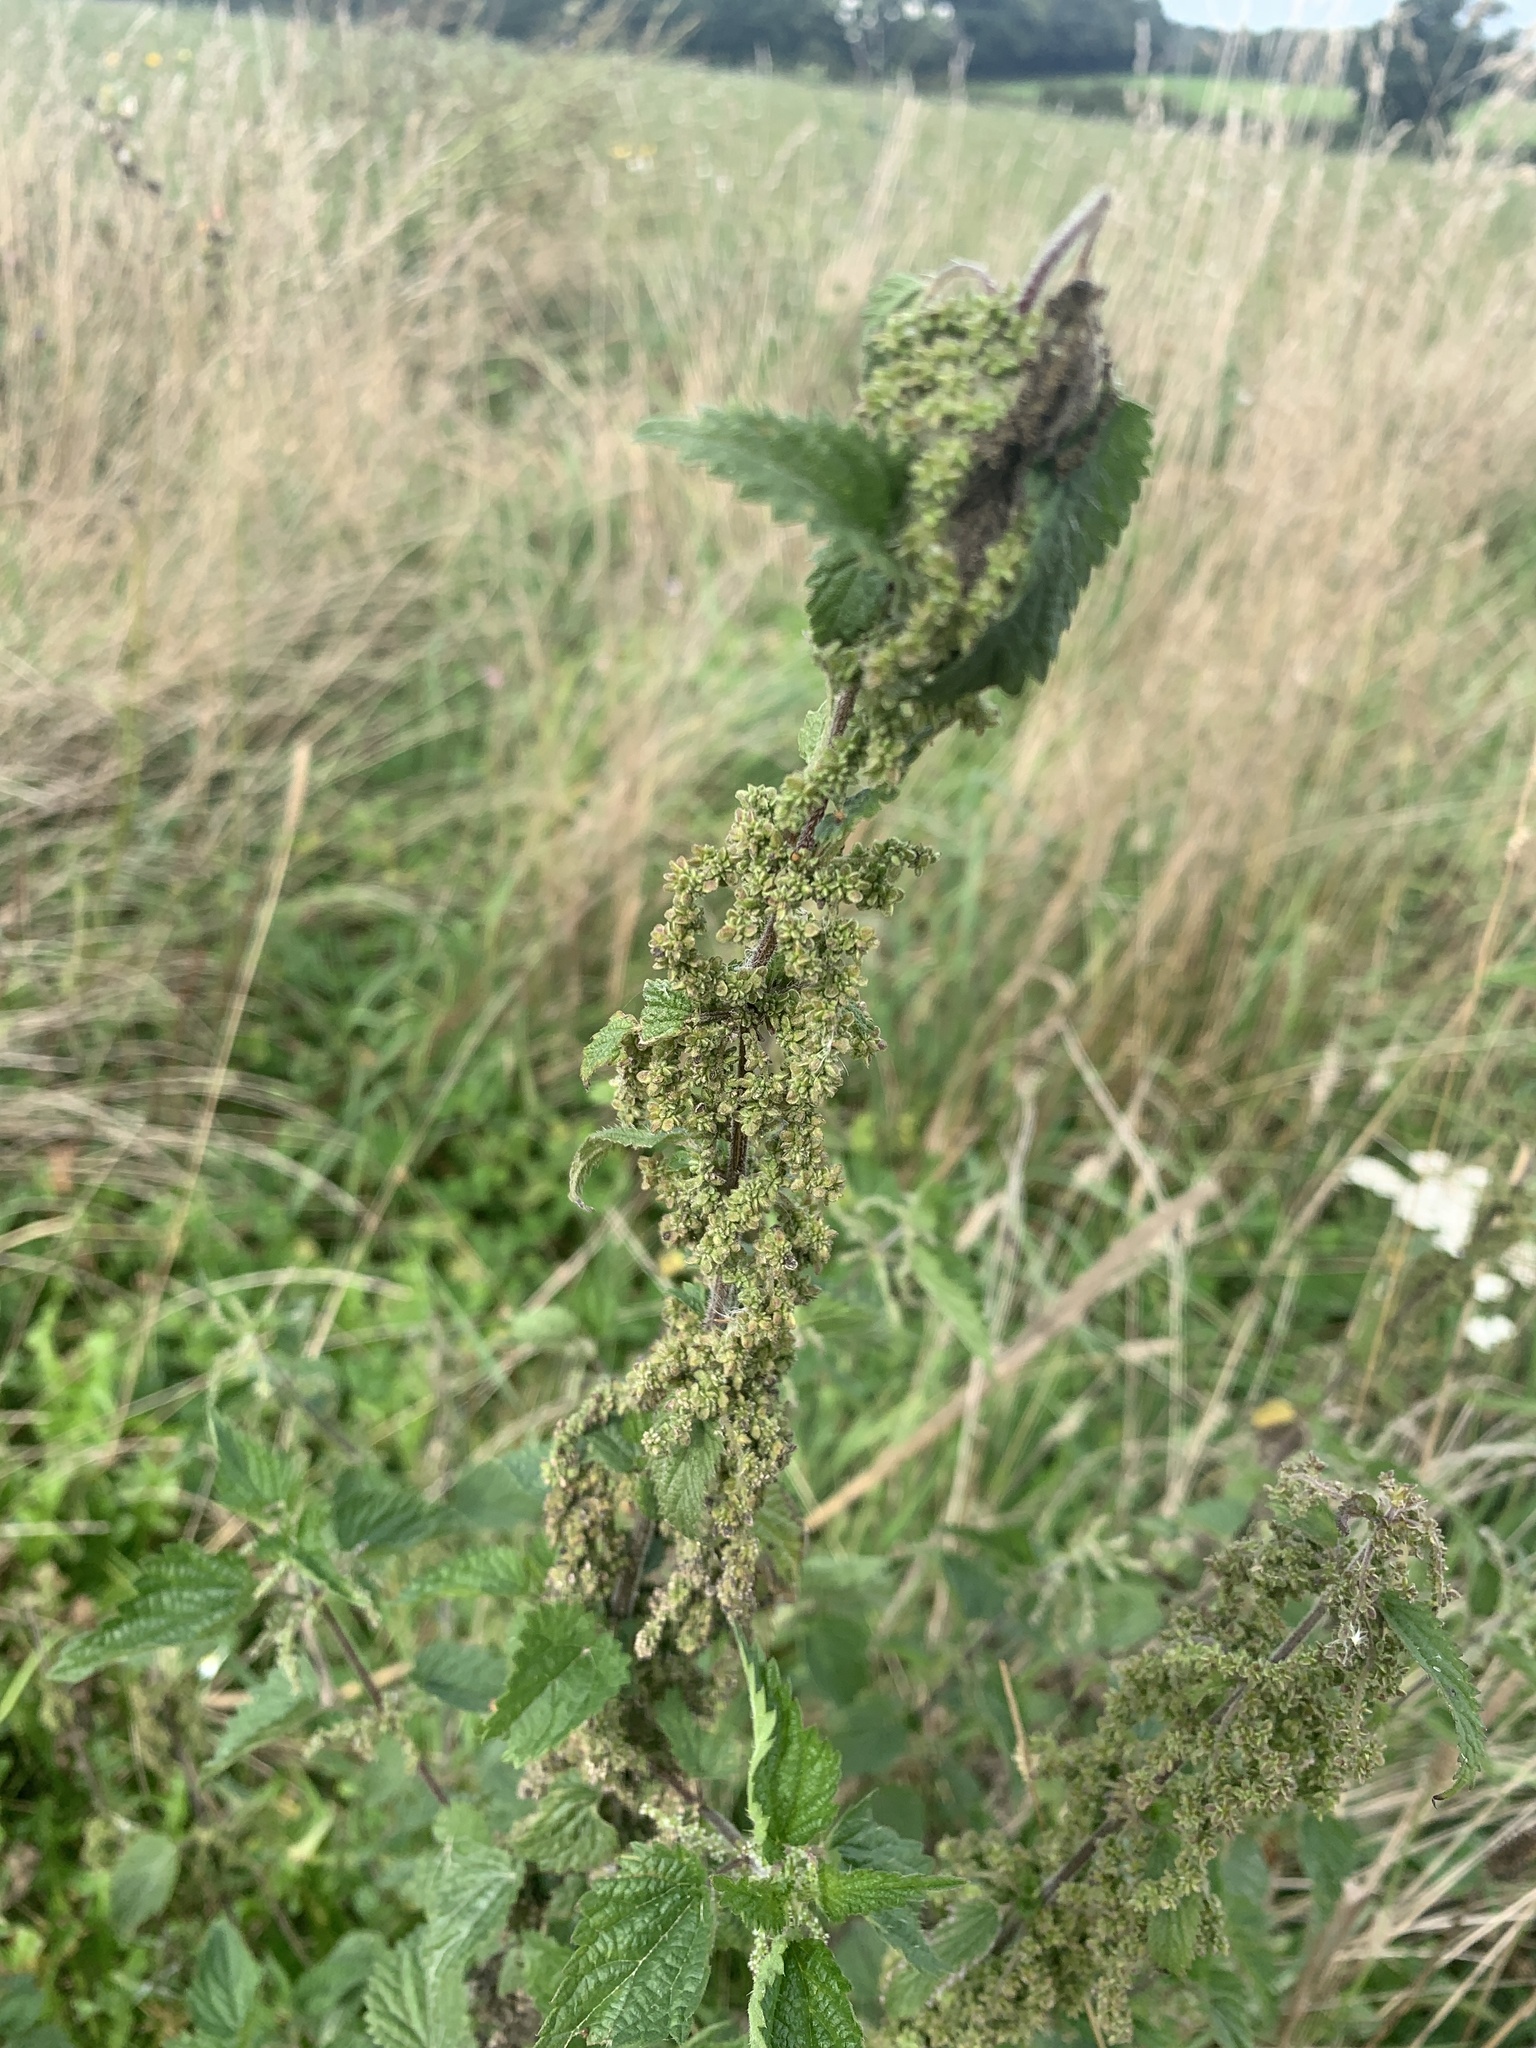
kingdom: Plantae
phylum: Tracheophyta
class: Magnoliopsida
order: Rosales
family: Urticaceae
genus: Urtica
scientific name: Urtica dioica
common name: Common nettle
